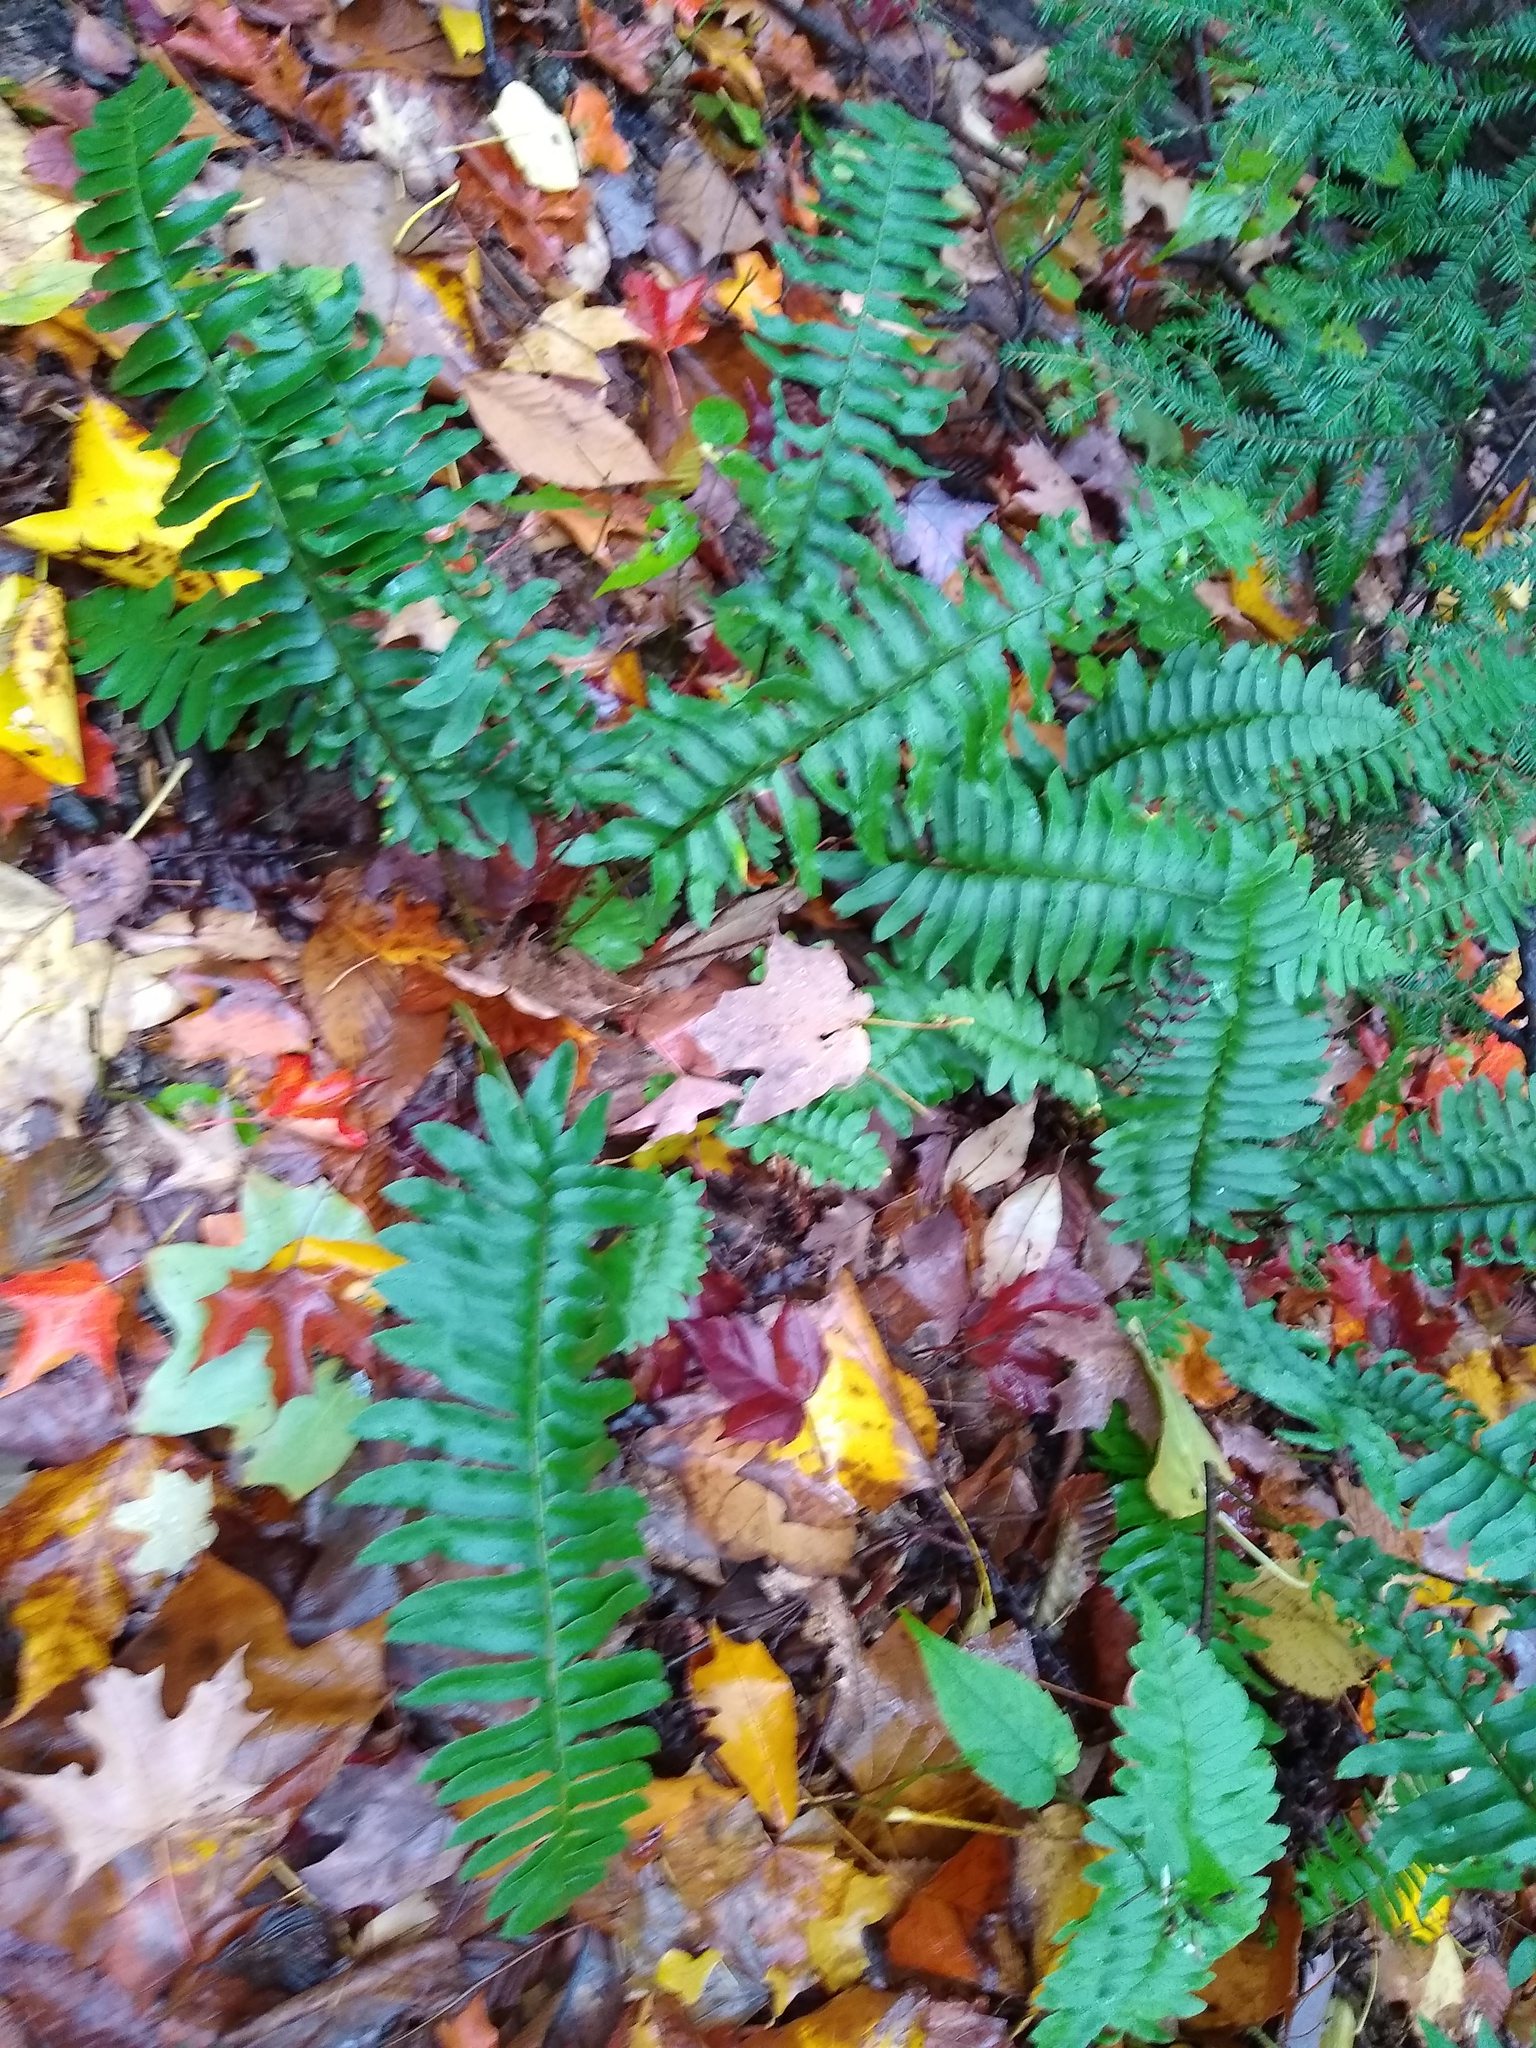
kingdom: Plantae
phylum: Tracheophyta
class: Polypodiopsida
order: Polypodiales
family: Dryopteridaceae
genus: Polystichum
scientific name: Polystichum acrostichoides
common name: Christmas fern
